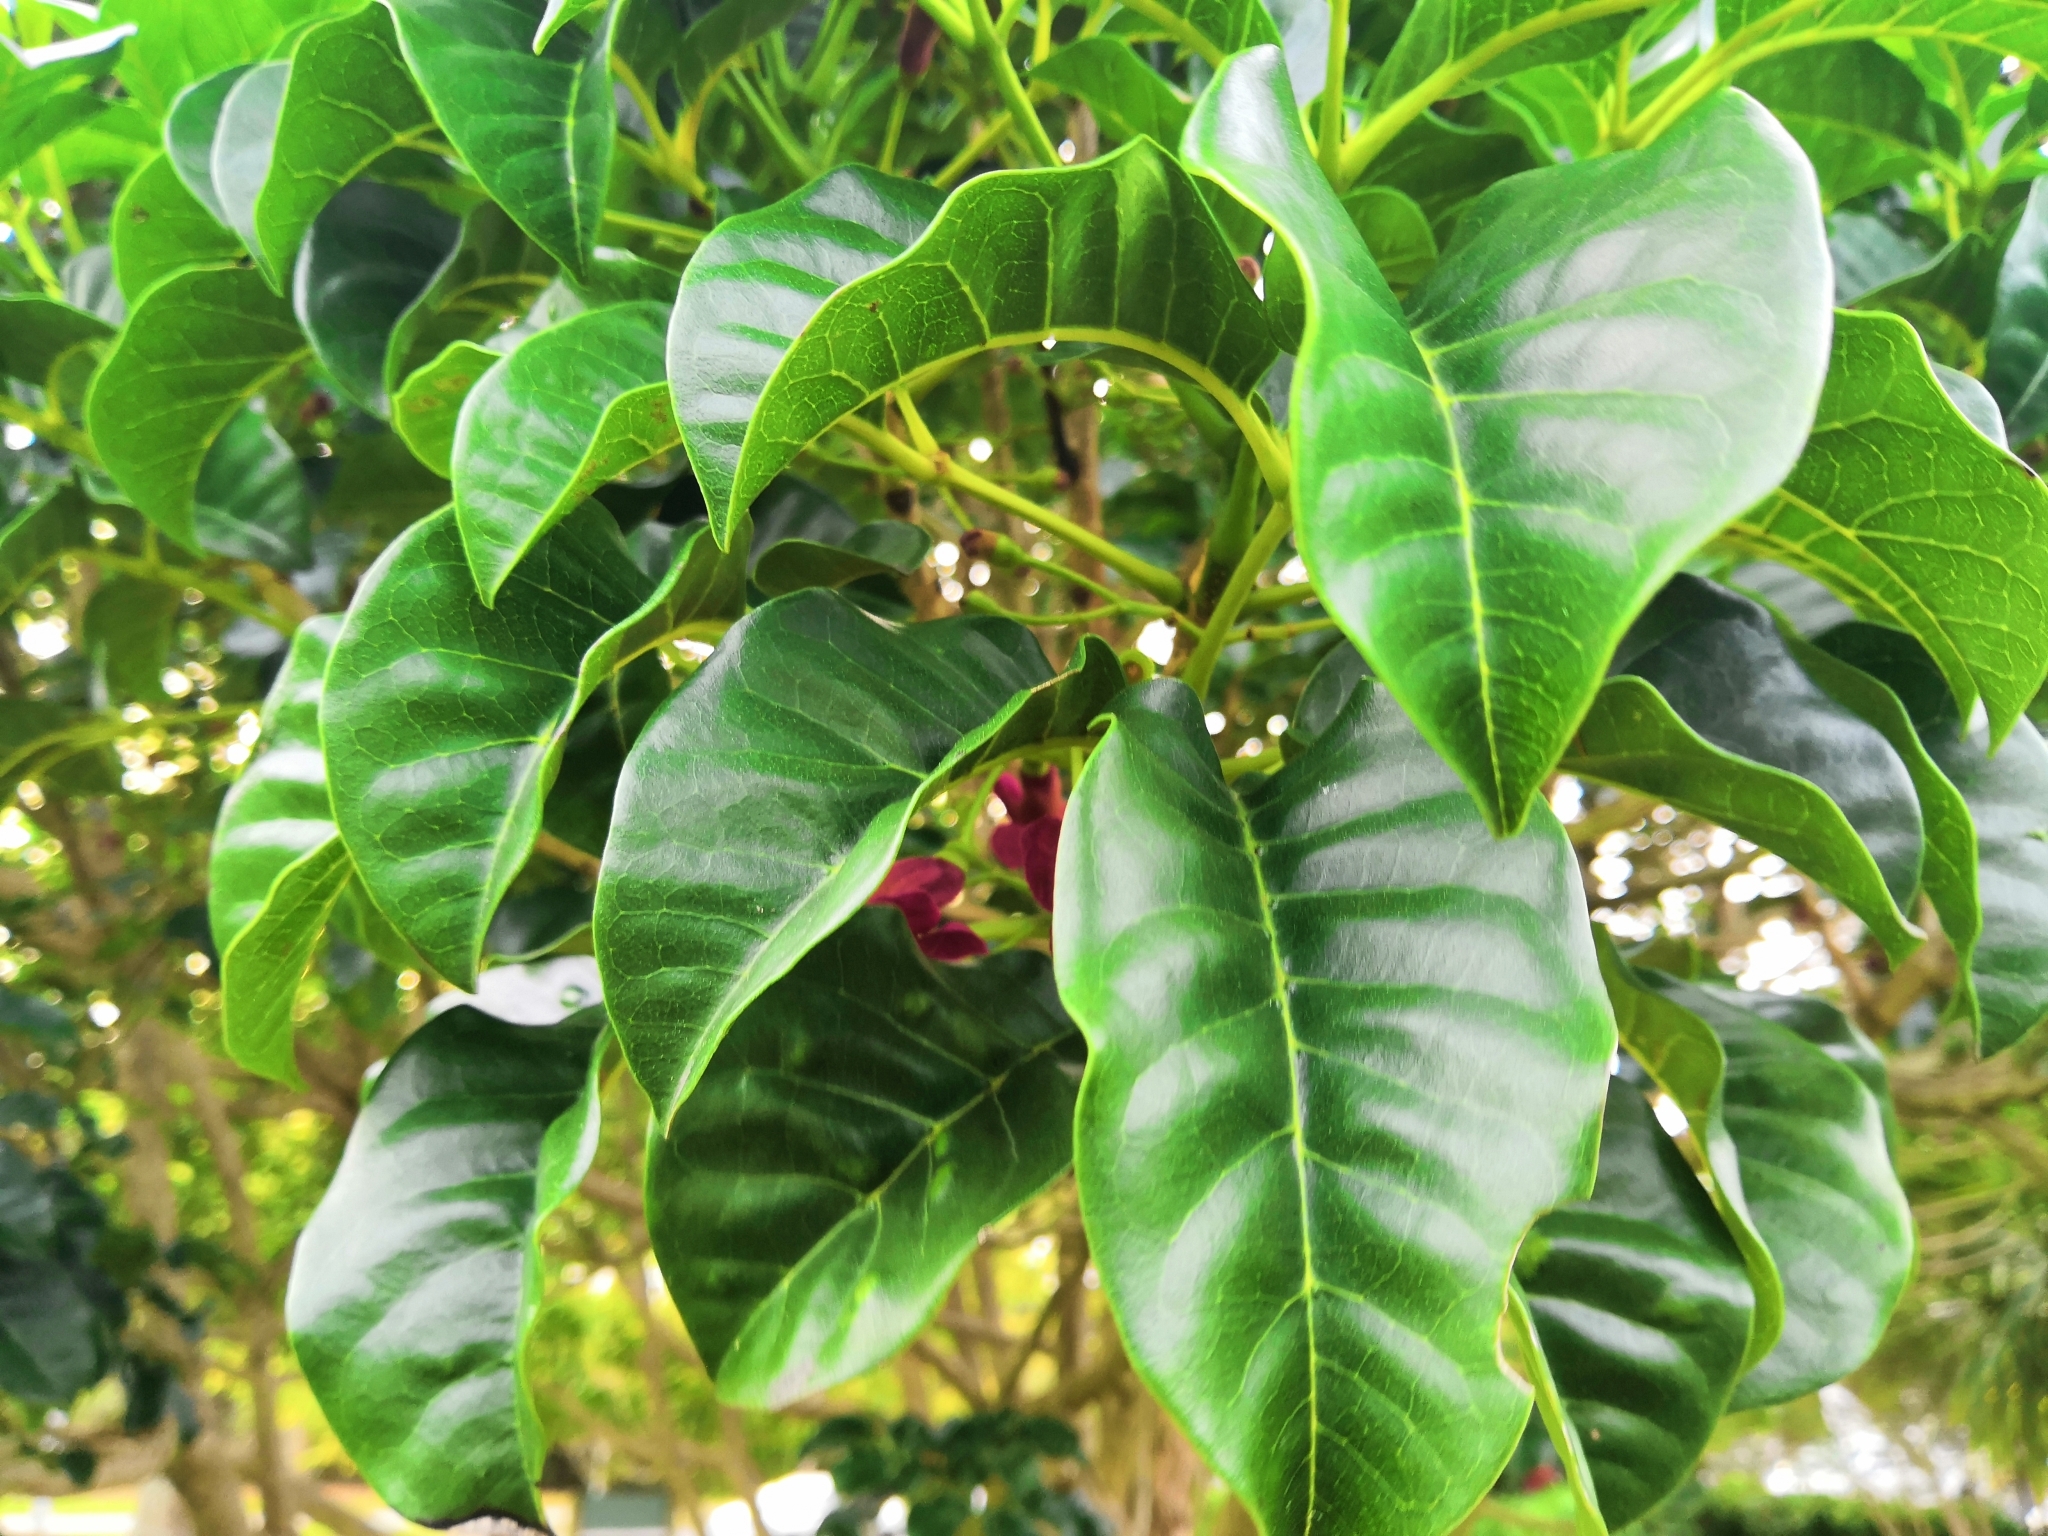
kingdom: Plantae
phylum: Tracheophyta
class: Magnoliopsida
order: Lamiales
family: Lamiaceae
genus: Vitex
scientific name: Vitex lucens
